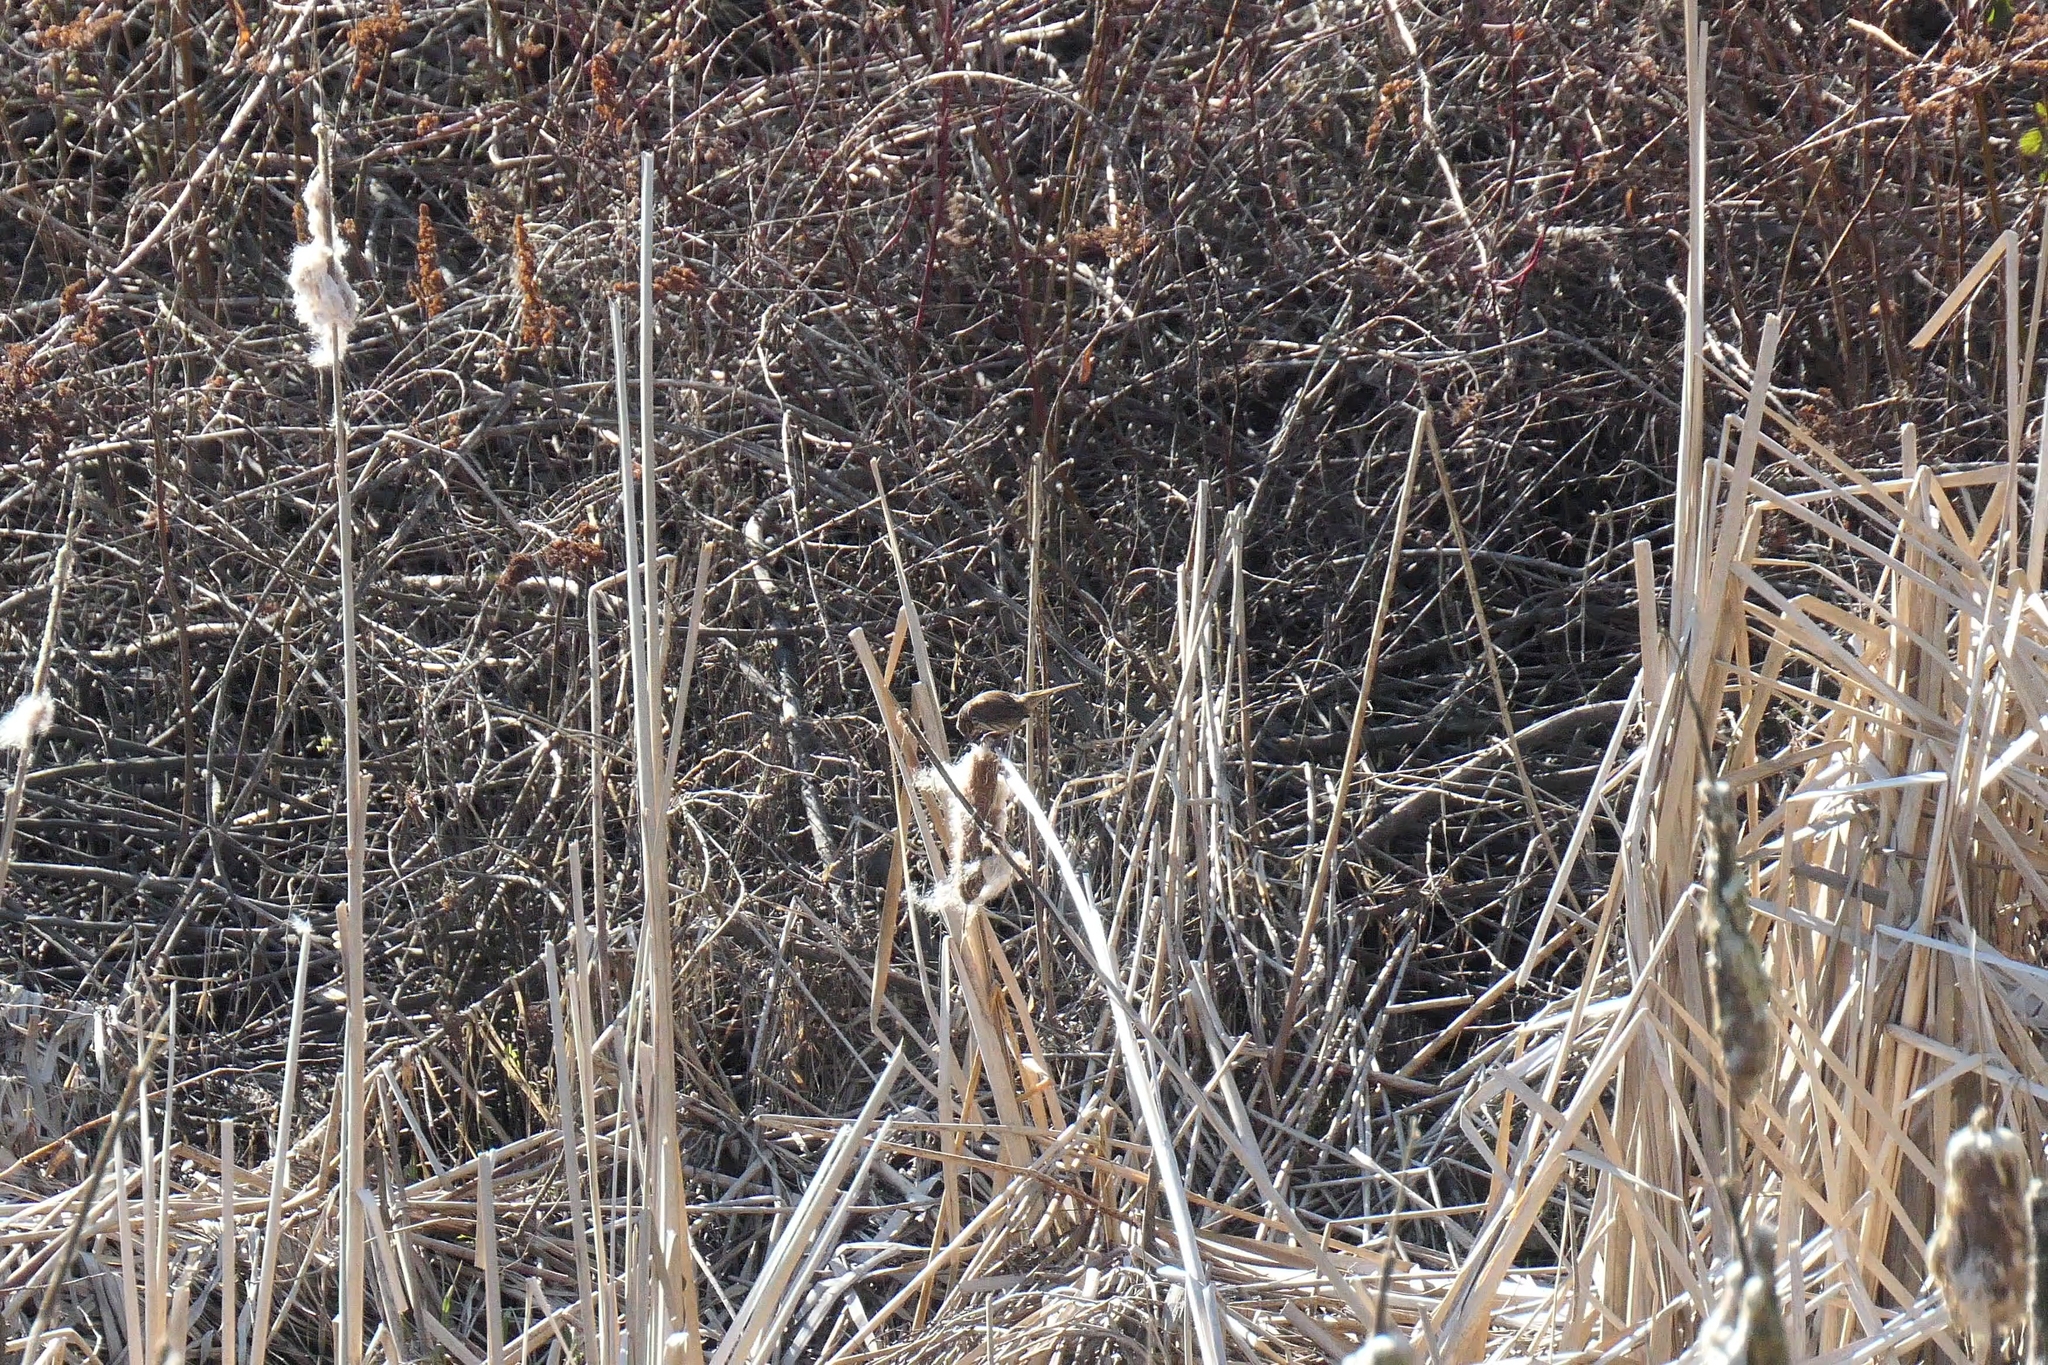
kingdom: Animalia
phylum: Chordata
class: Aves
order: Passeriformes
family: Passerellidae
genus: Melospiza
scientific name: Melospiza melodia
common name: Song sparrow
